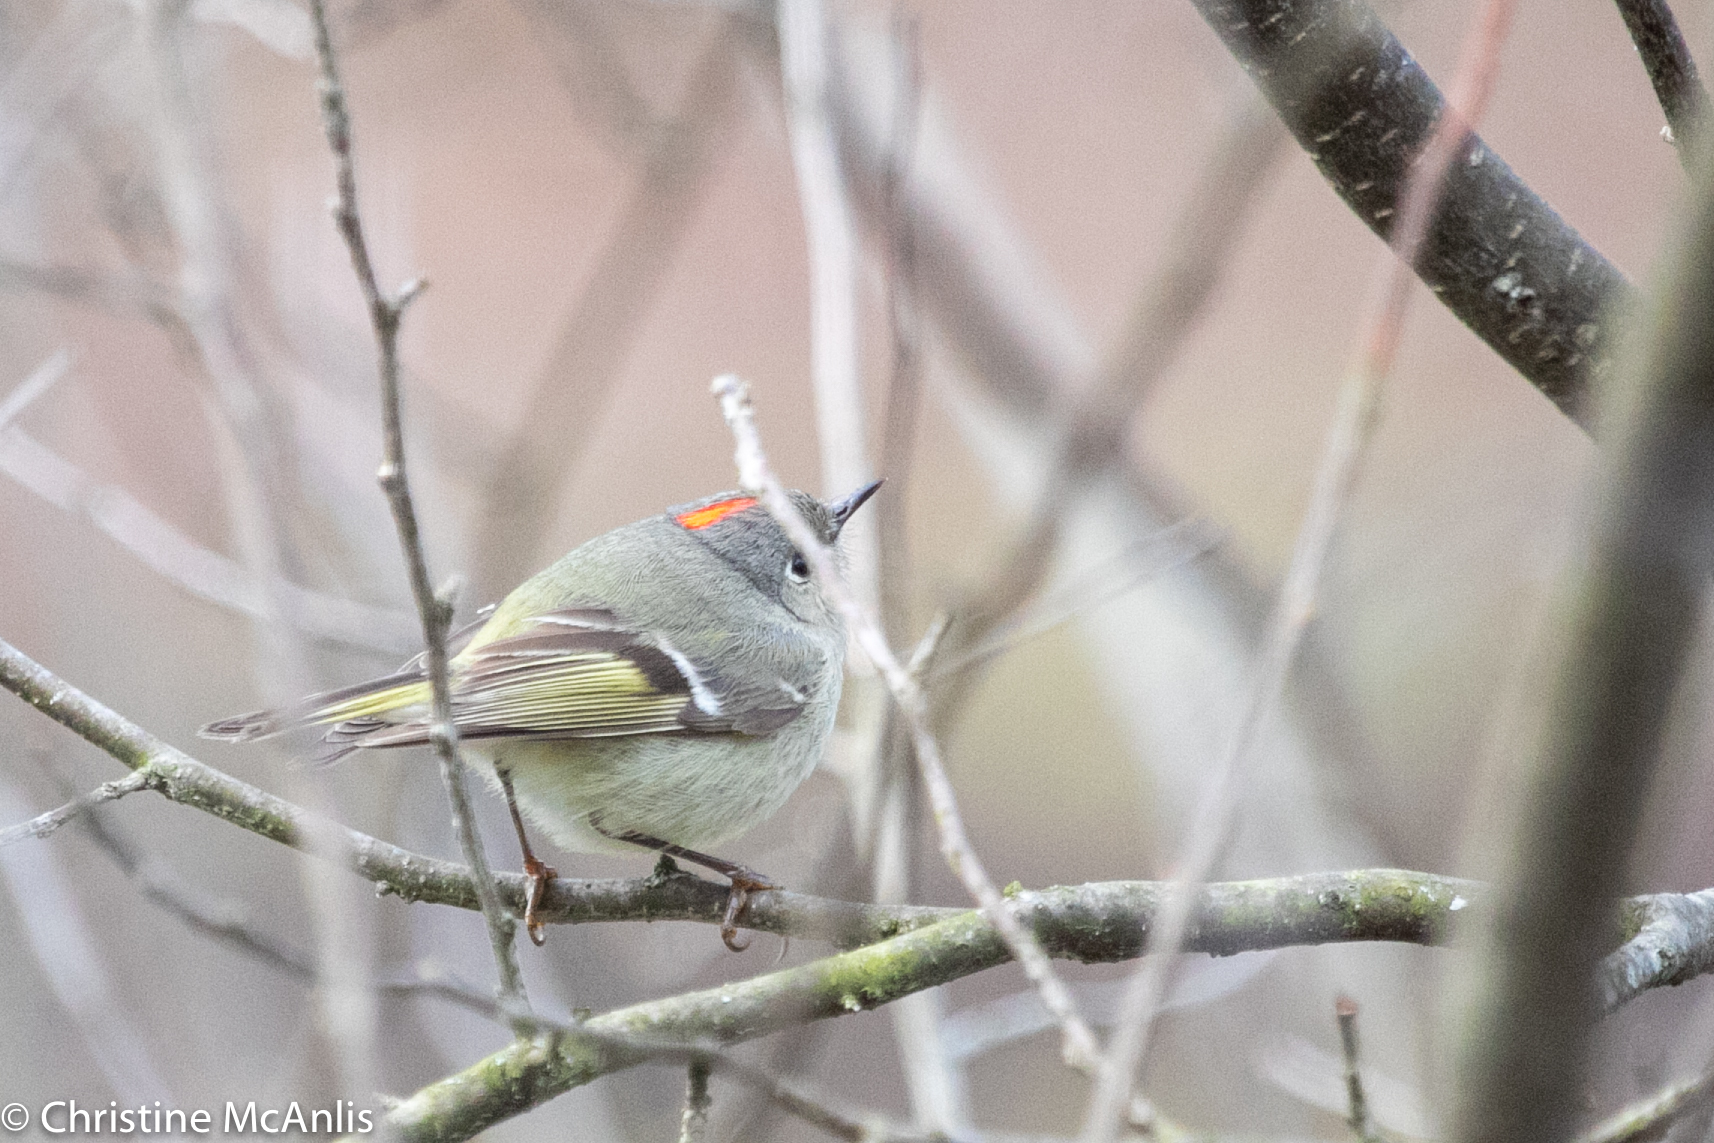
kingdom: Animalia
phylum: Chordata
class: Aves
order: Passeriformes
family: Regulidae
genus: Regulus
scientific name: Regulus calendula
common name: Ruby-crowned kinglet
